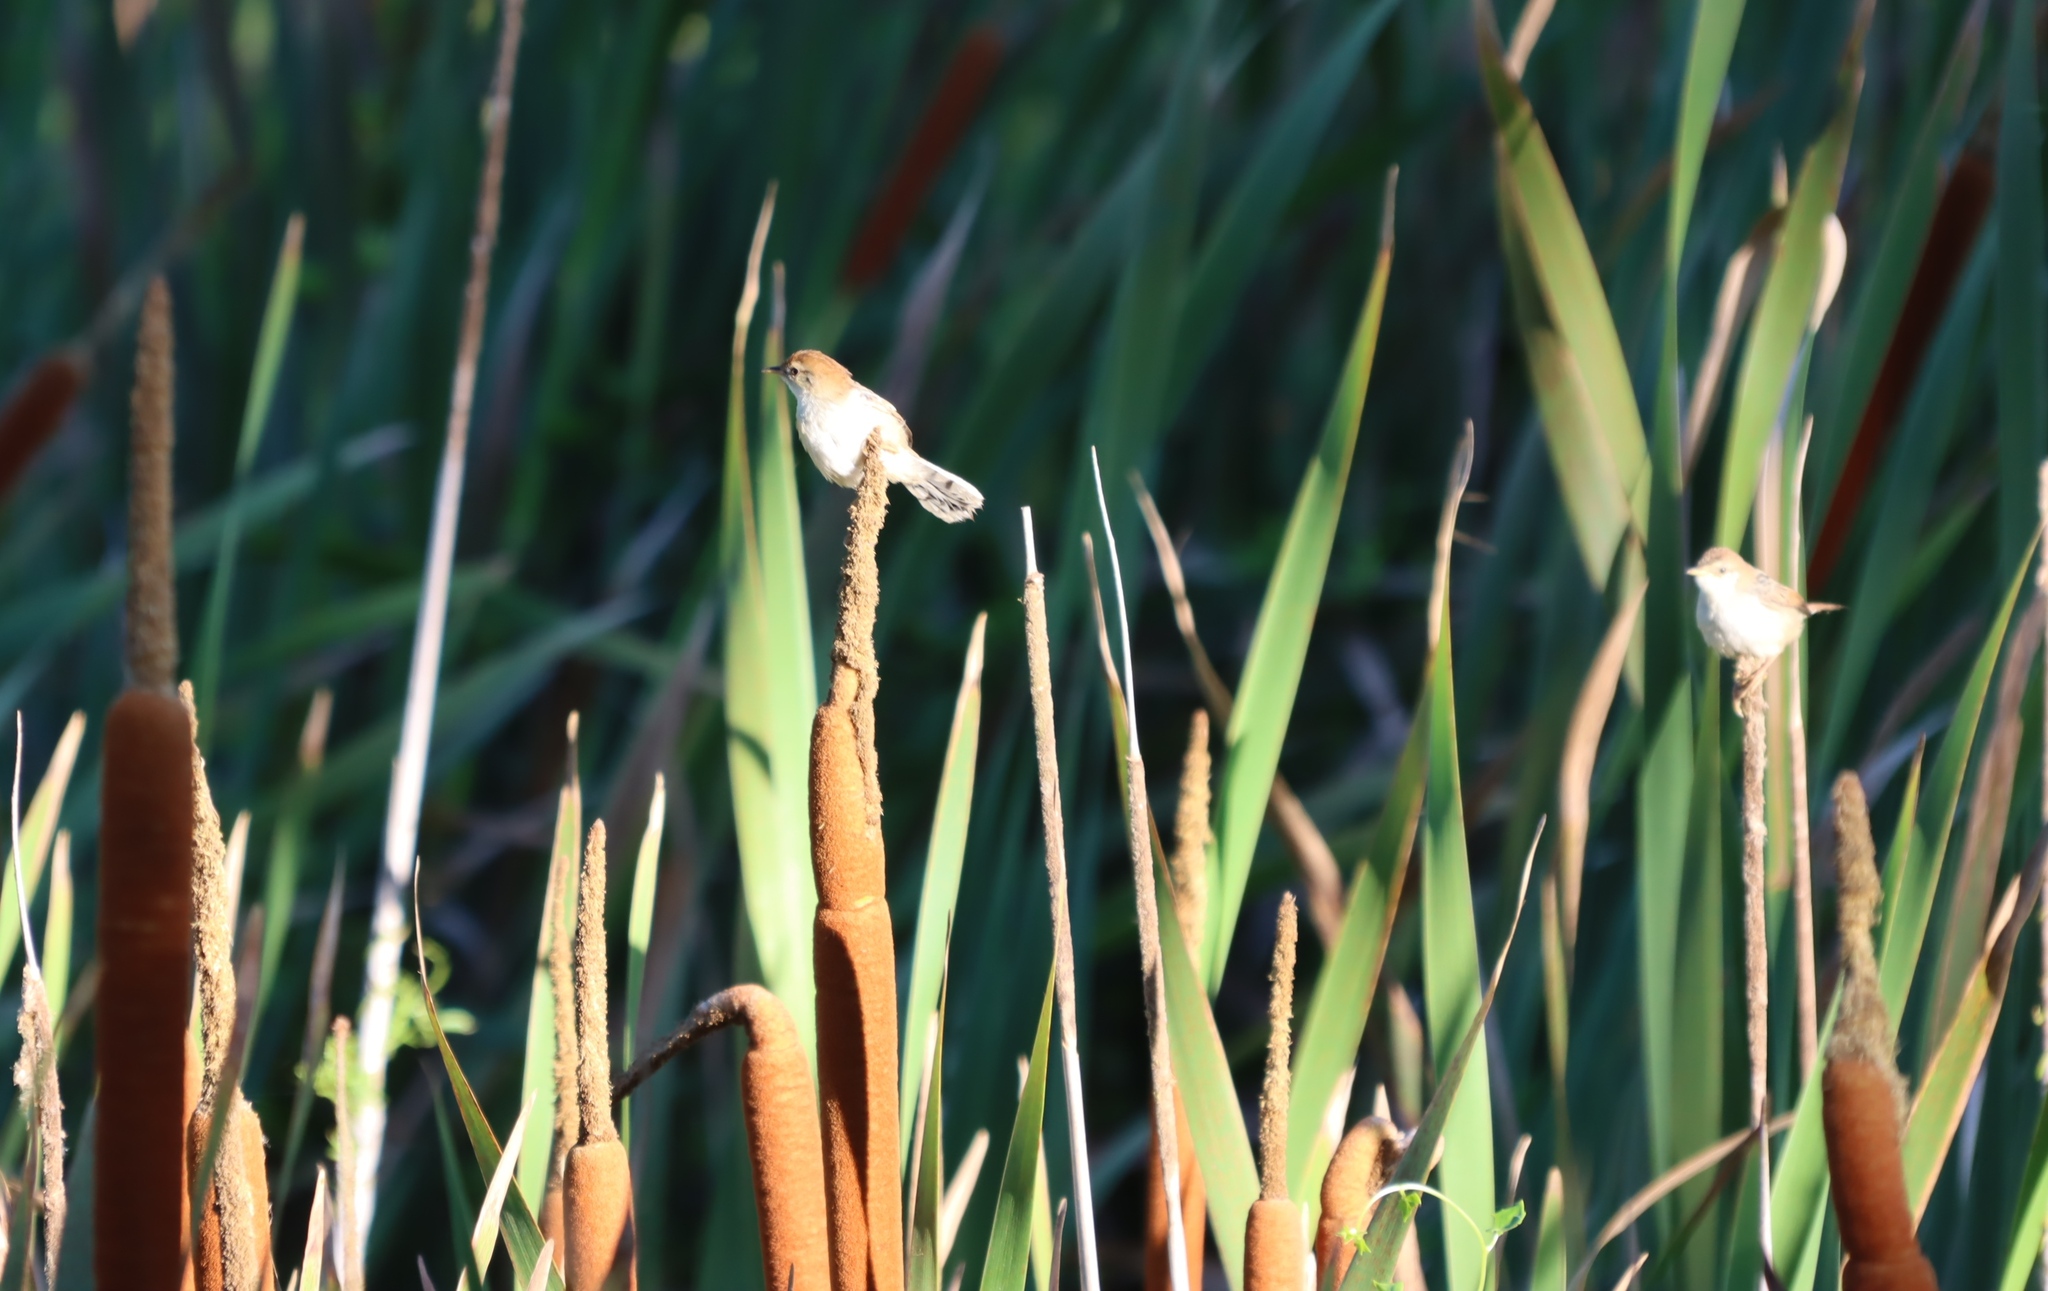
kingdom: Animalia
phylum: Chordata
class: Aves
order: Passeriformes
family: Cisticolidae
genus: Cisticola
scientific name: Cisticola tinniens
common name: Levaillant's cisticola
